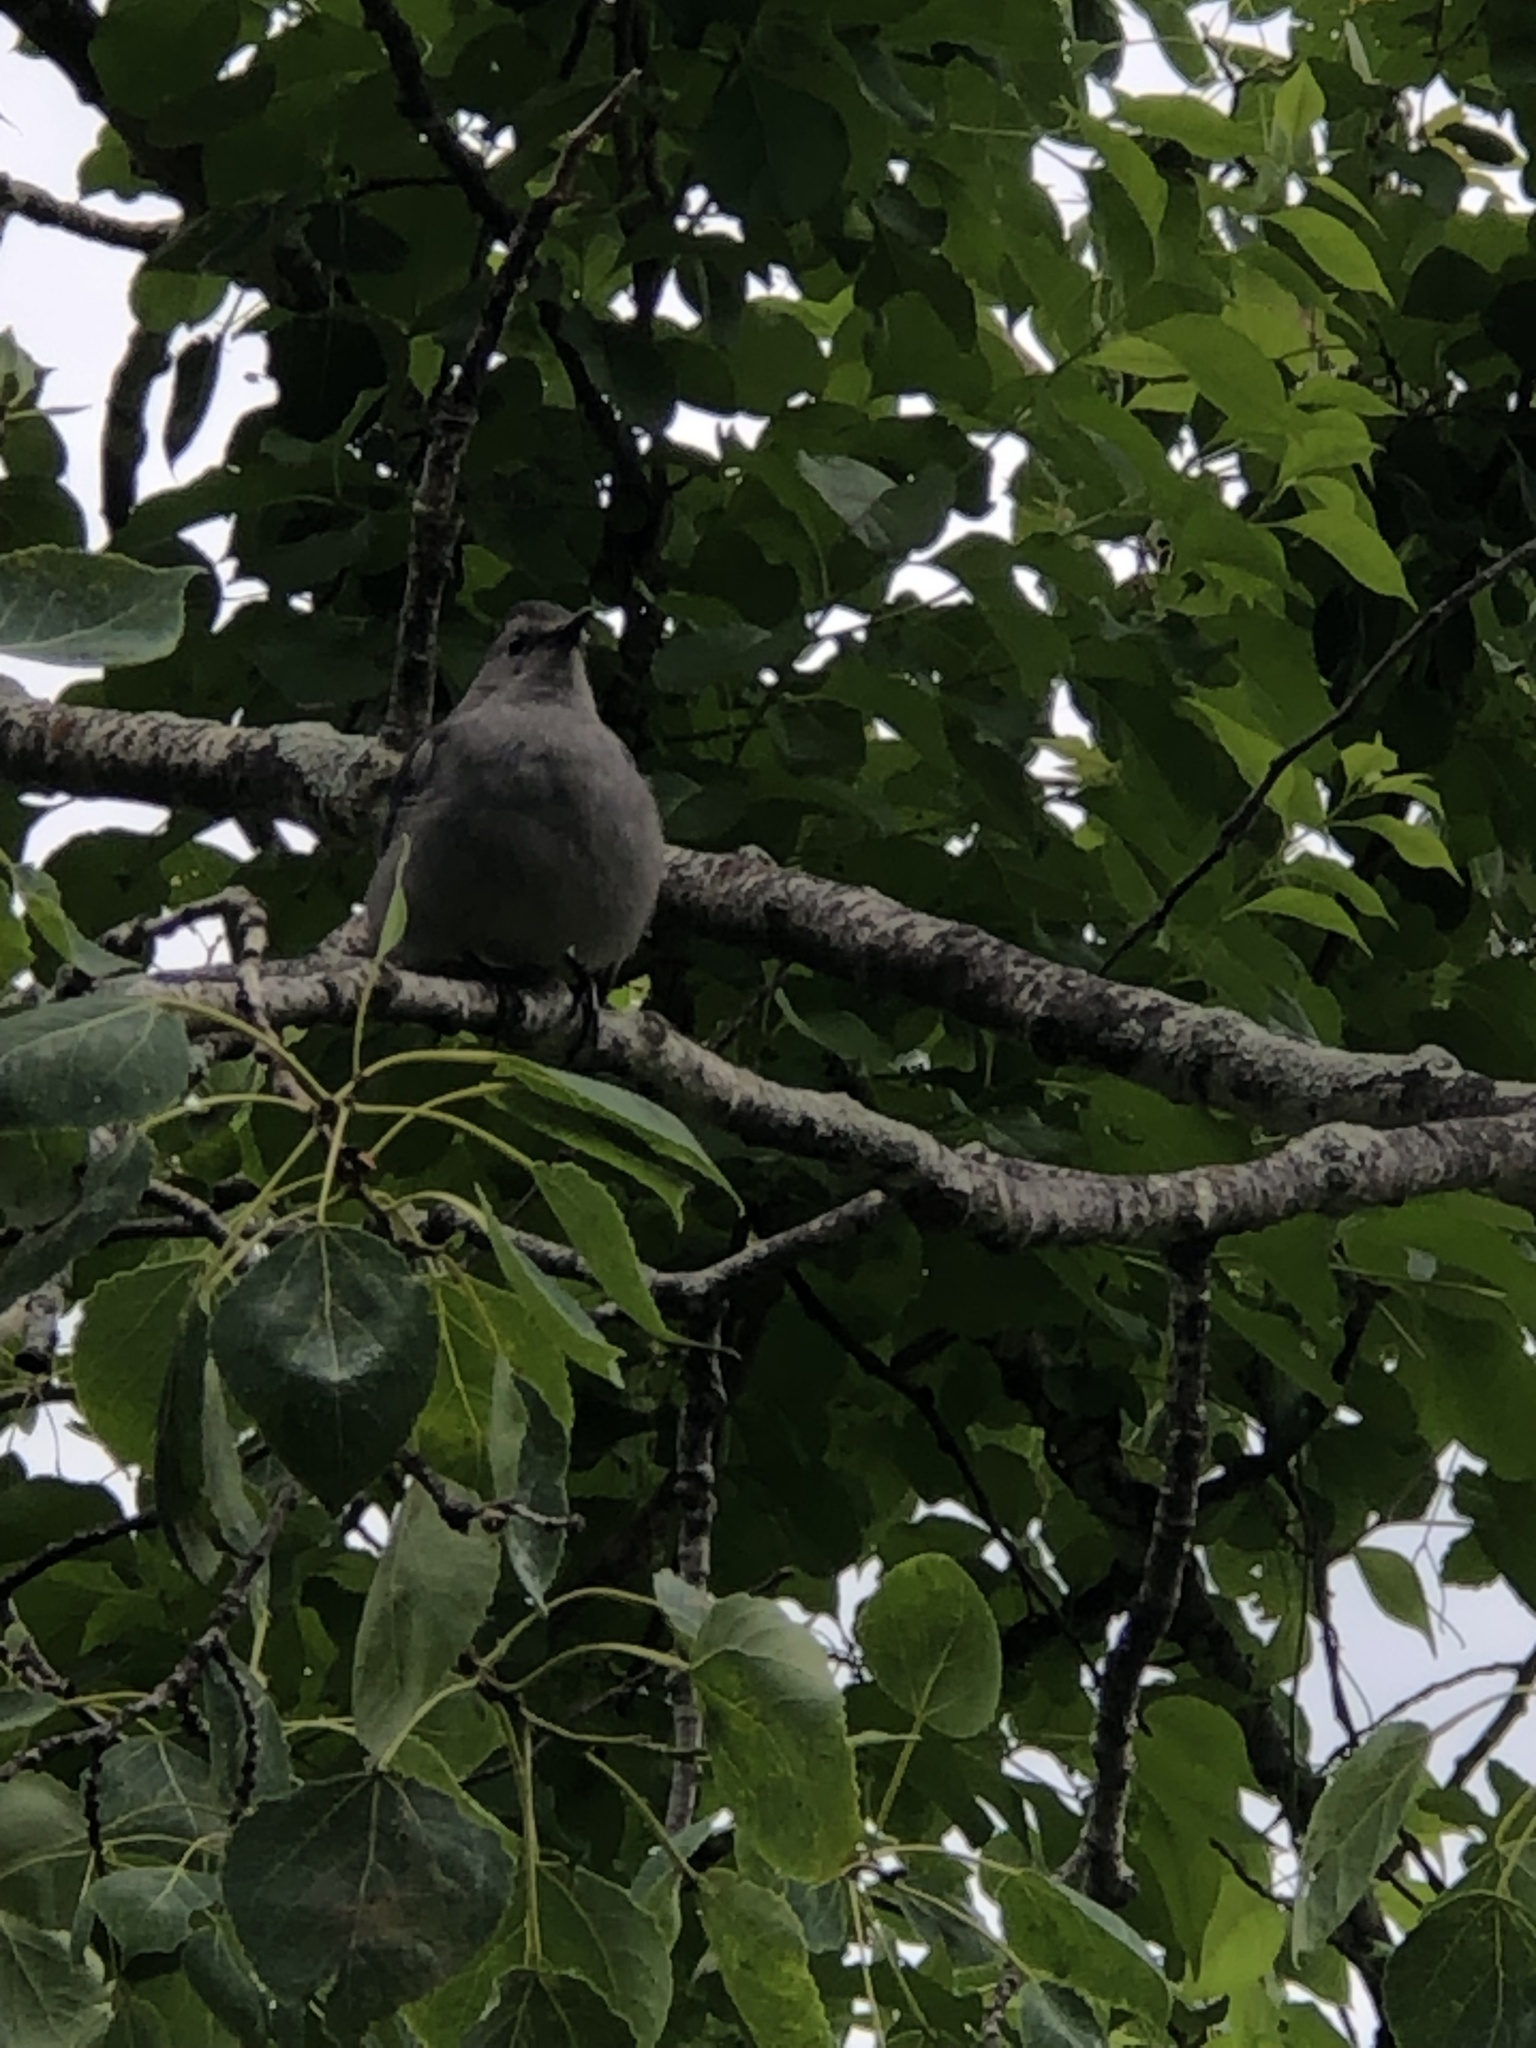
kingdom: Animalia
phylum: Chordata
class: Aves
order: Passeriformes
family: Mimidae
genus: Dumetella
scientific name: Dumetella carolinensis
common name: Gray catbird
